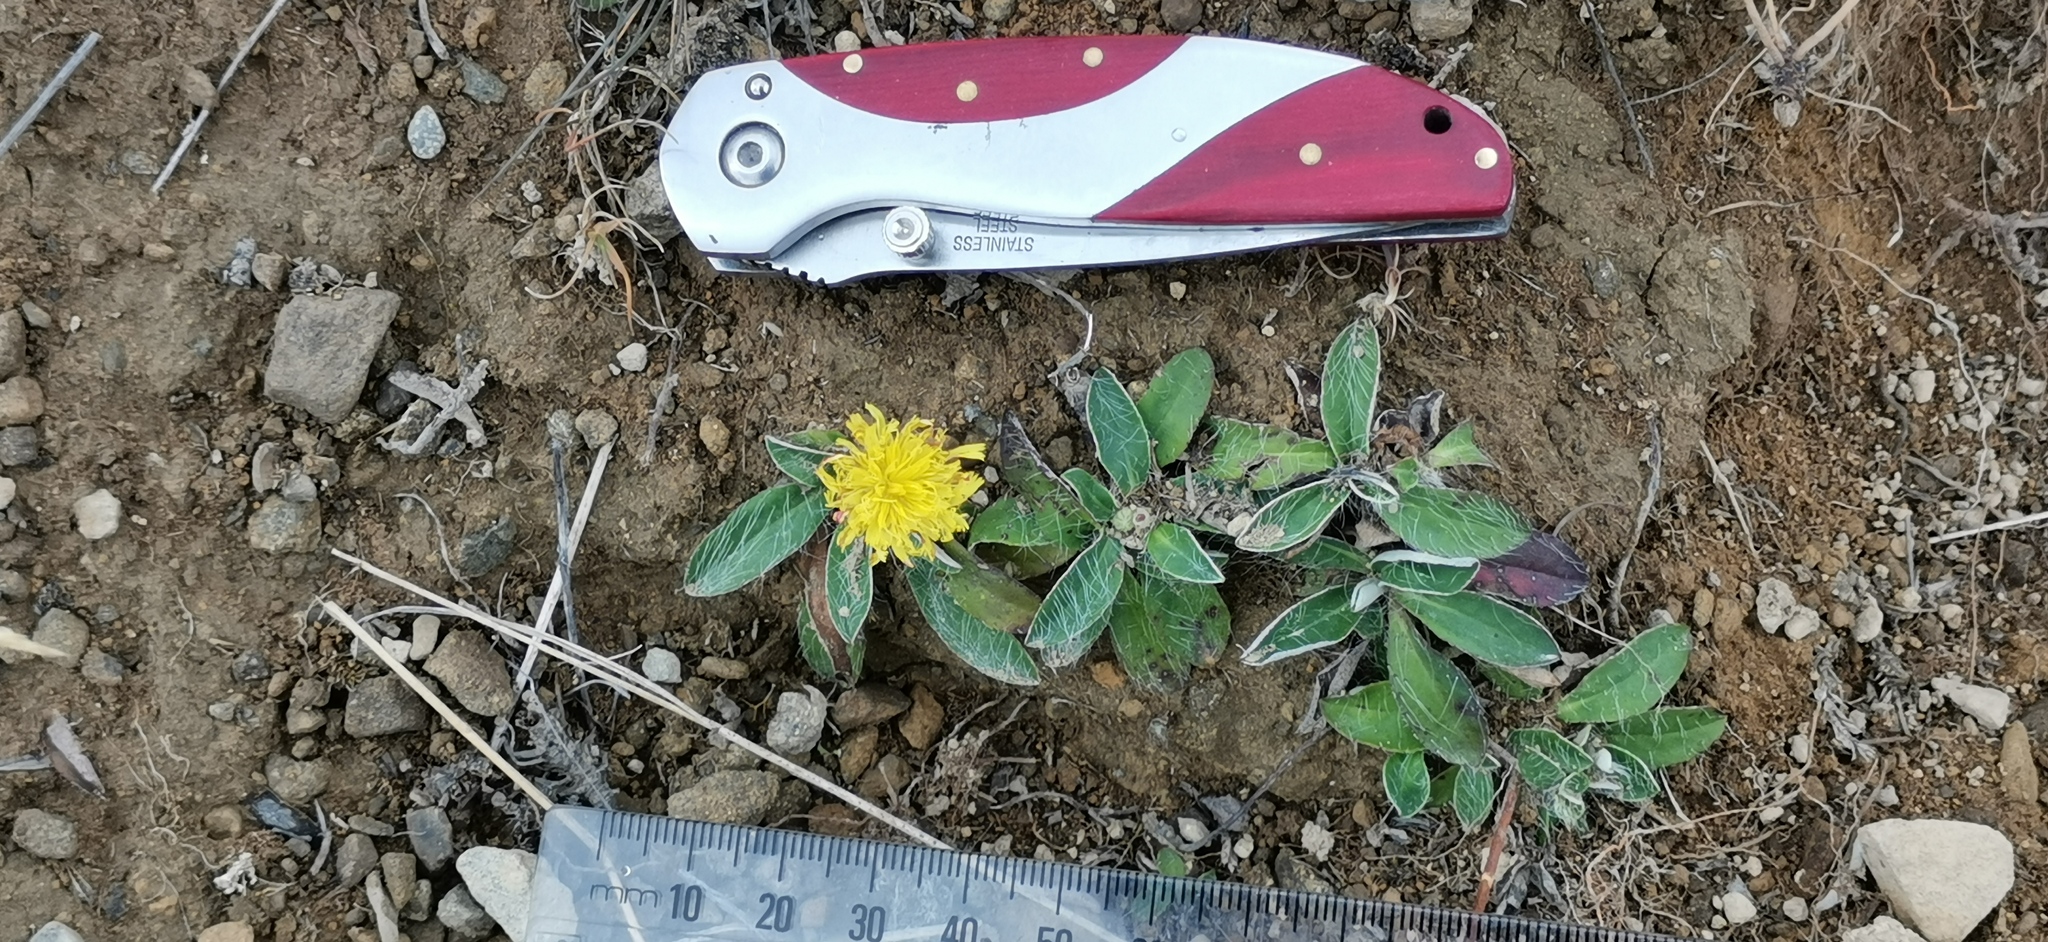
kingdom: Plantae
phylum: Tracheophyta
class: Magnoliopsida
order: Asterales
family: Asteraceae
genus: Pilosella
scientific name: Pilosella officinarum
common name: Mouse-ear hawkweed
